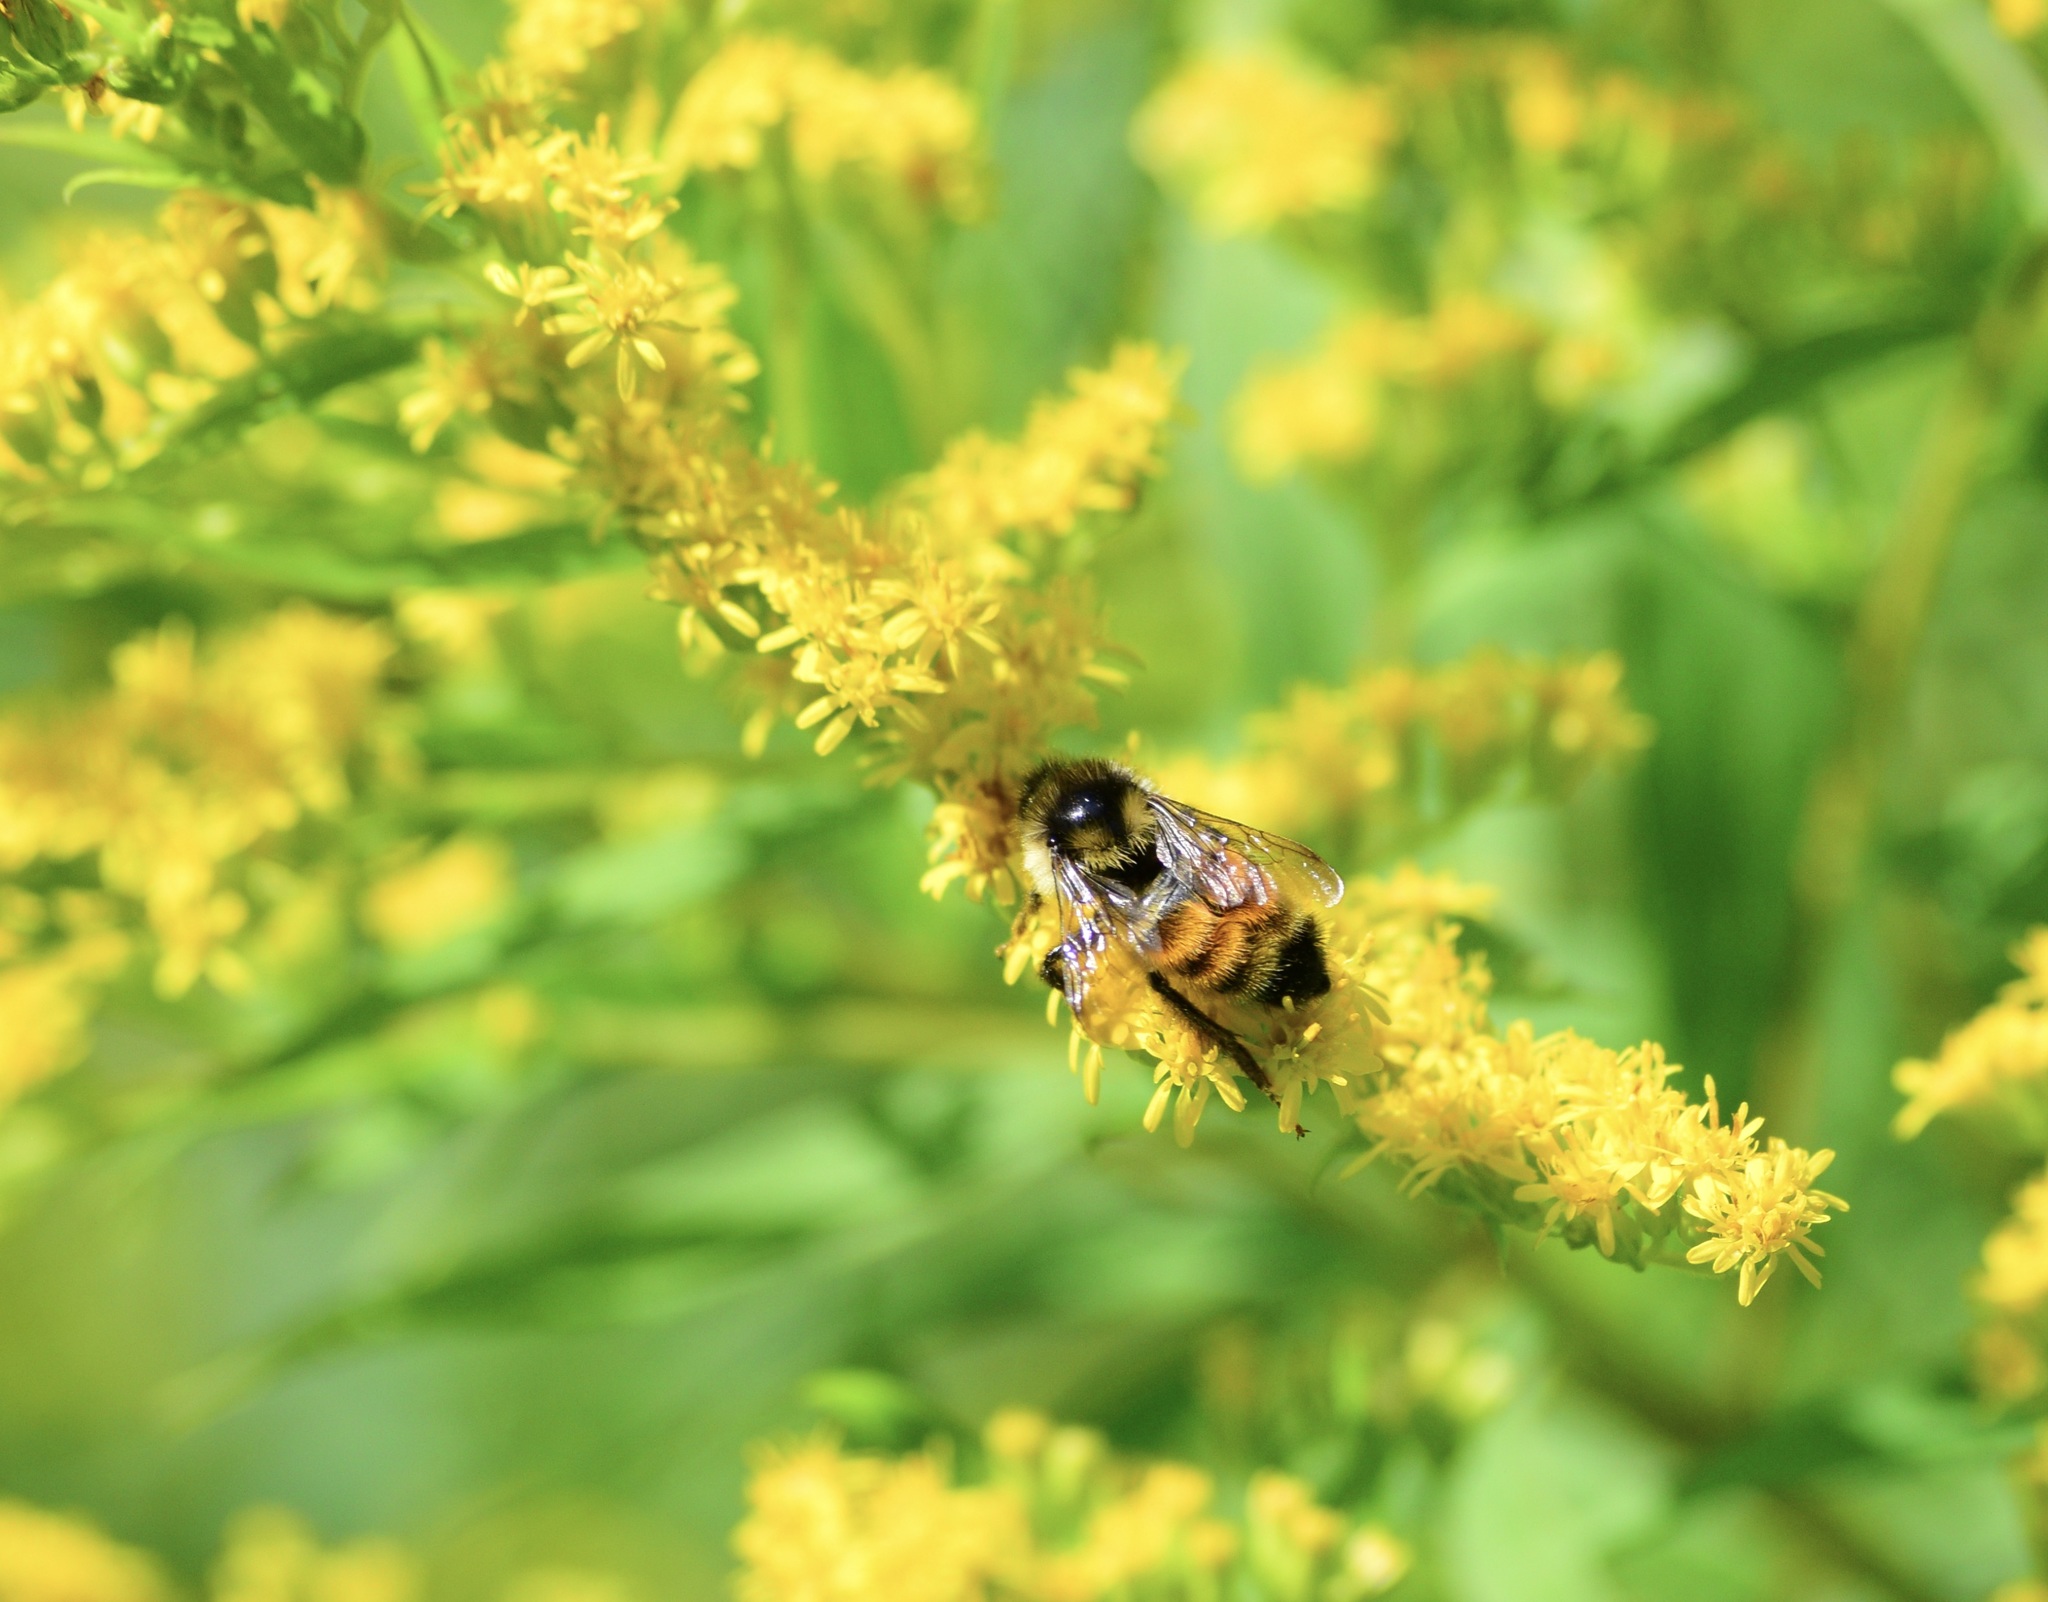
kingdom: Animalia
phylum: Arthropoda
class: Insecta
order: Hymenoptera
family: Apidae
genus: Bombus
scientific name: Bombus ternarius
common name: Tri-colored bumble bee
